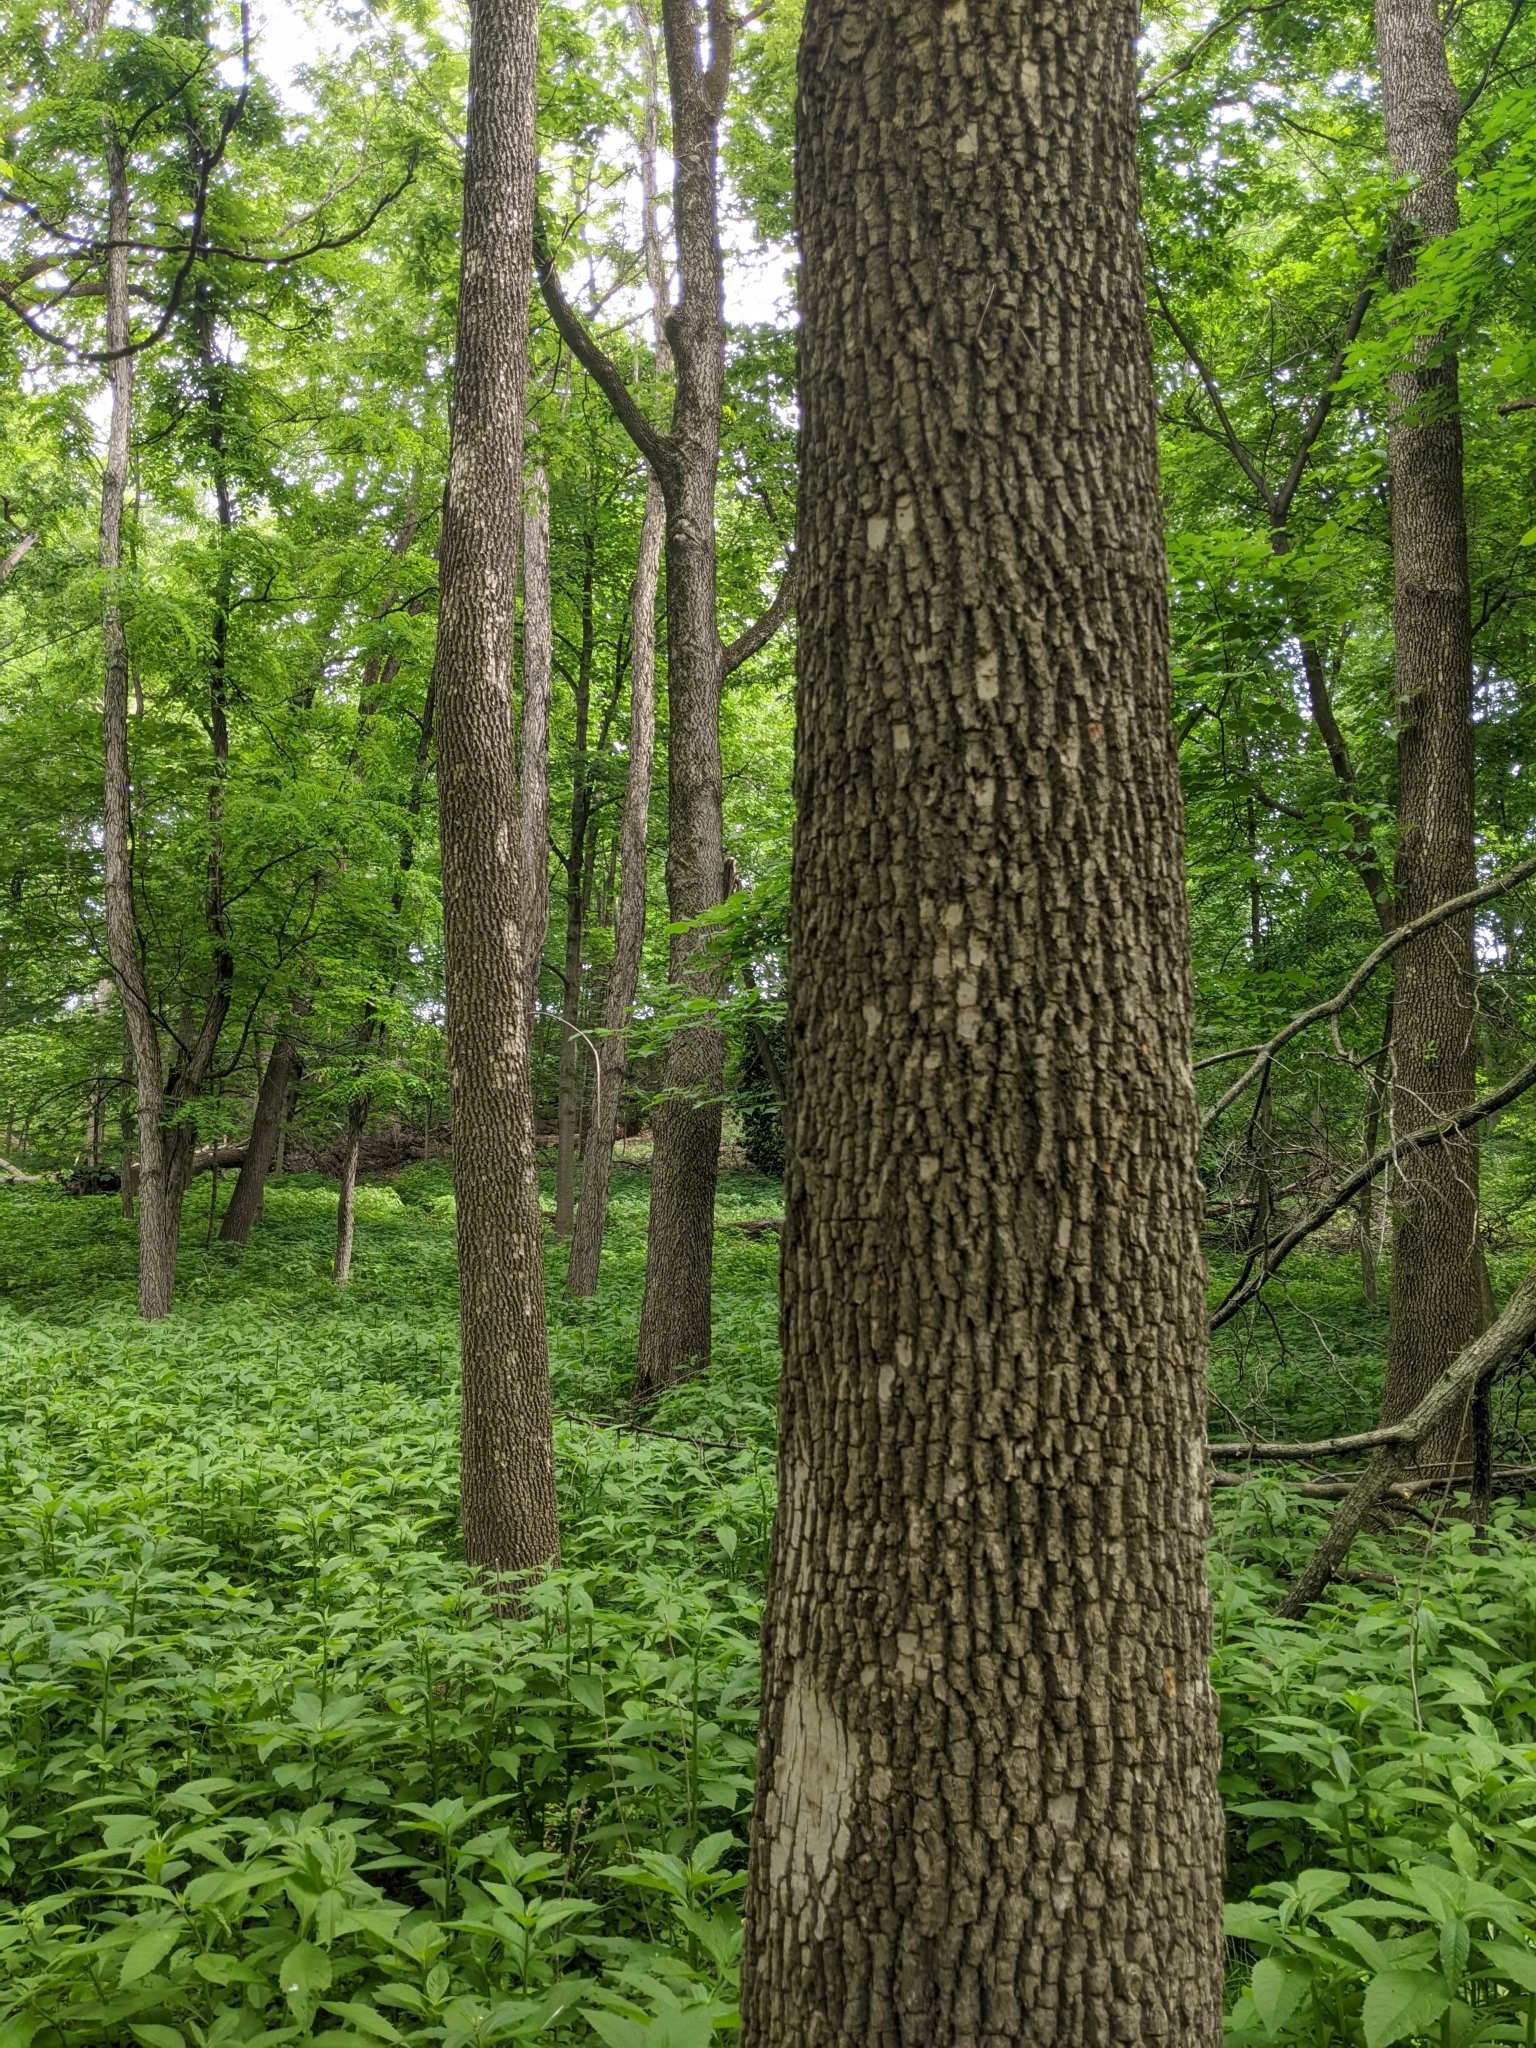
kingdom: Animalia
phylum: Arthropoda
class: Insecta
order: Coleoptera
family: Buprestidae
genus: Agrilus
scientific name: Agrilus planipennis
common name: Emerald ash borer
